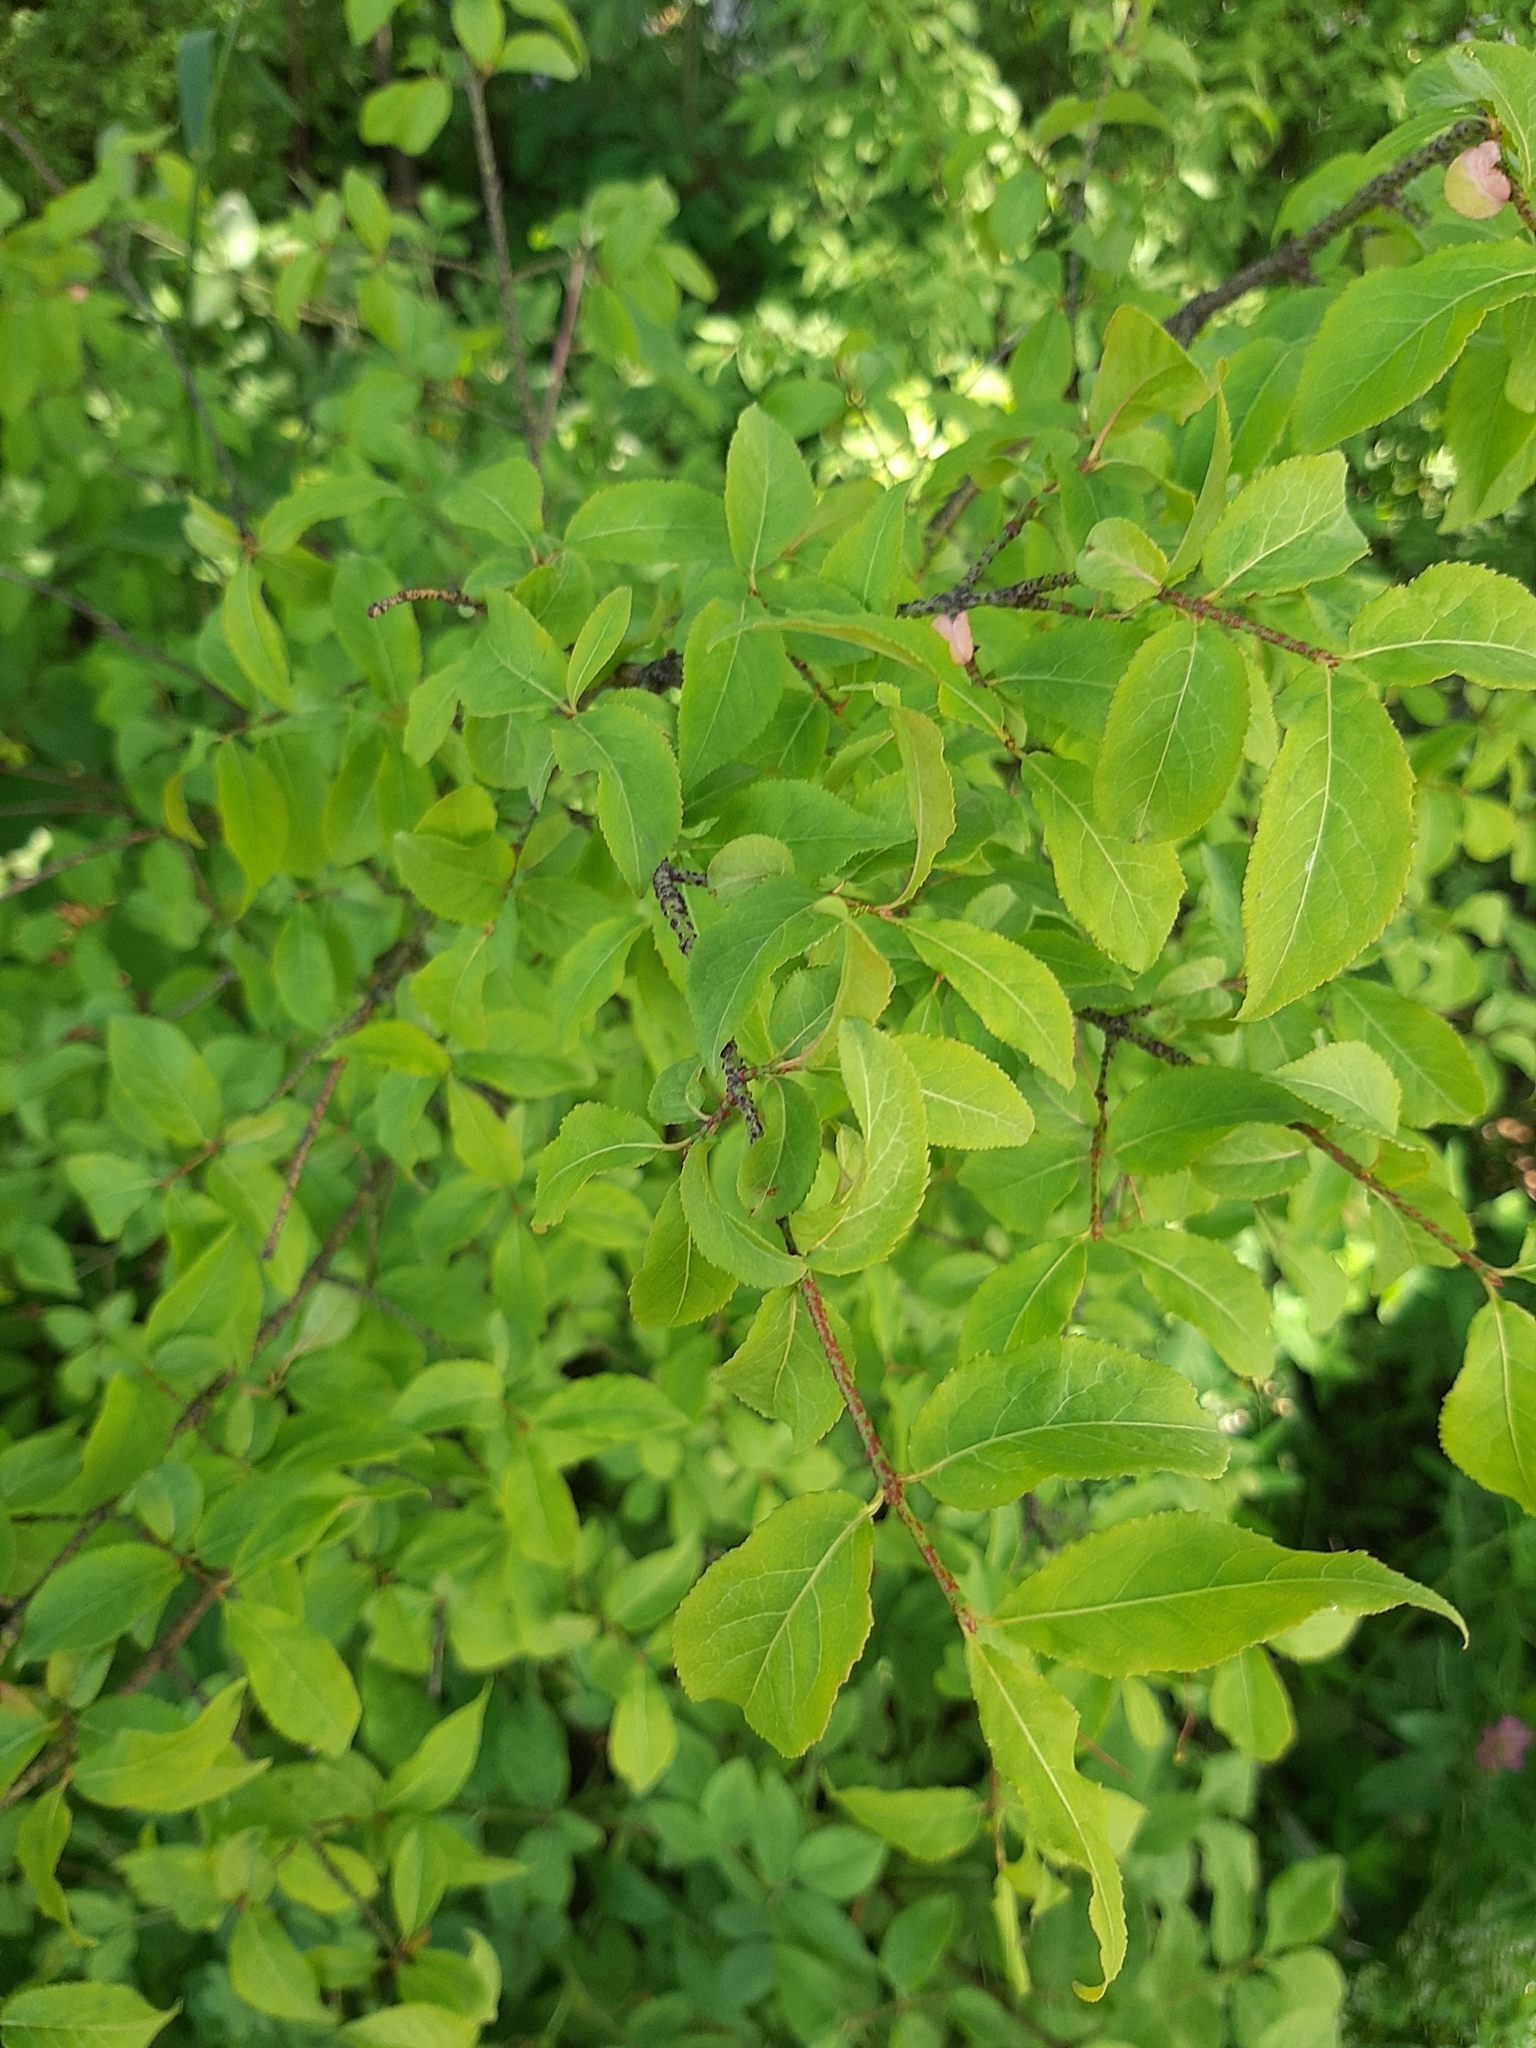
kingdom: Plantae
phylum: Tracheophyta
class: Magnoliopsida
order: Celastrales
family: Celastraceae
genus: Euonymus
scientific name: Euonymus verrucosus
